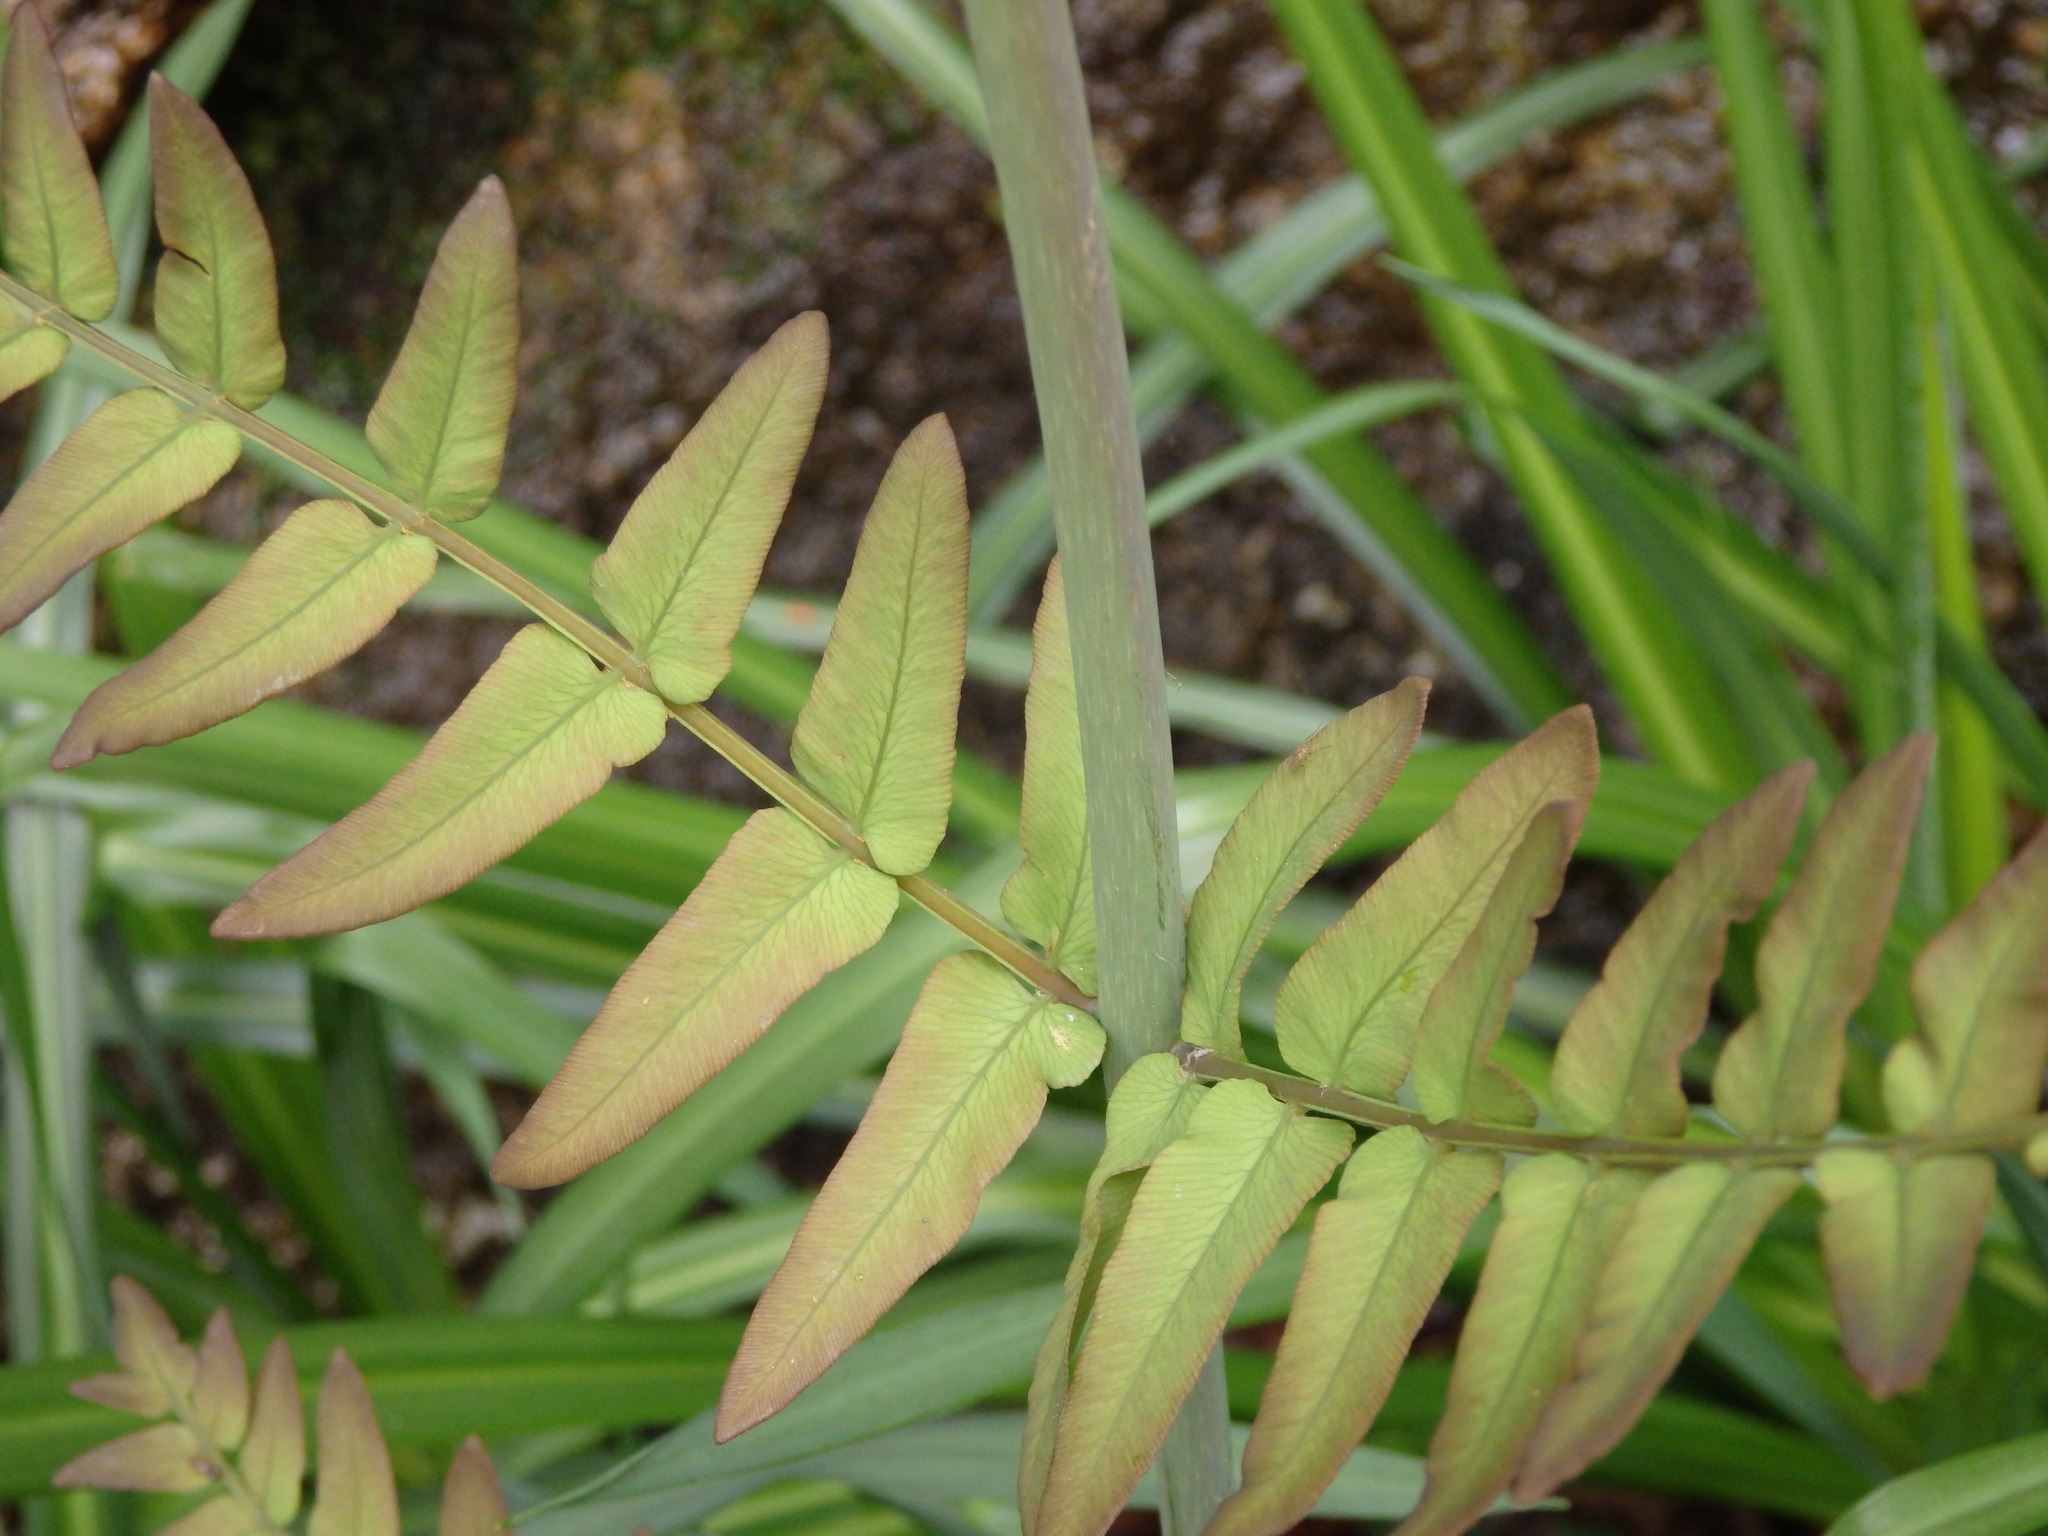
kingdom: Plantae
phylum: Tracheophyta
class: Polypodiopsida
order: Osmundales
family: Osmundaceae
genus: Osmunda
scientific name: Osmunda regalis
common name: Royal fern
